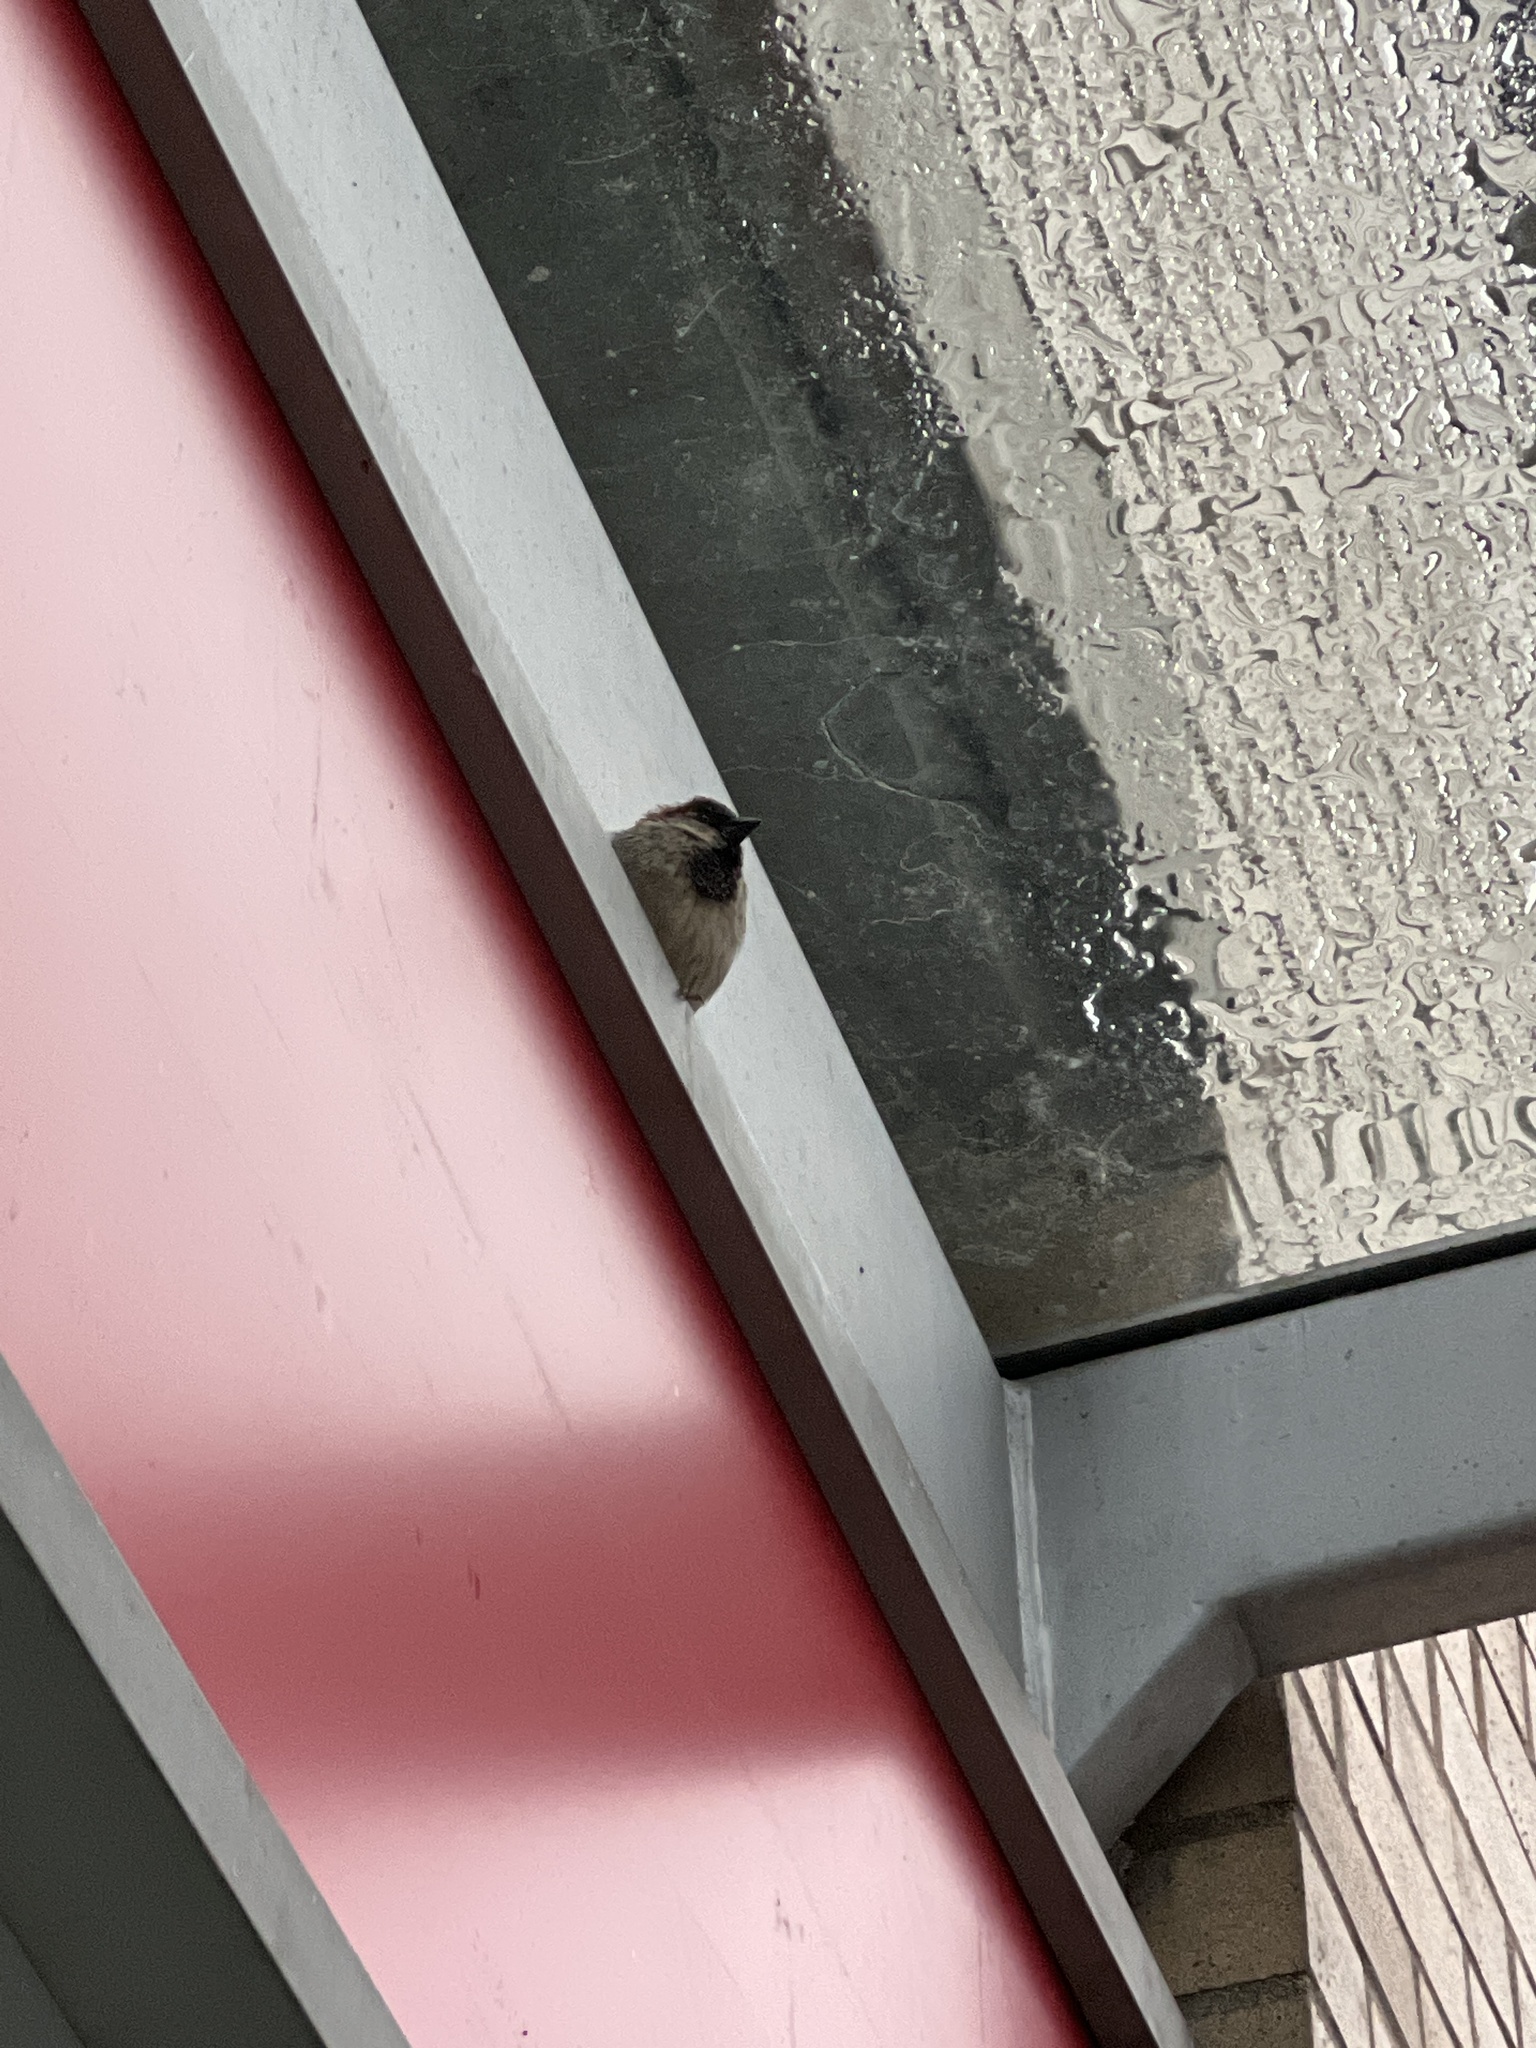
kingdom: Animalia
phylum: Chordata
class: Aves
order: Passeriformes
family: Passeridae
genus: Passer
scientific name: Passer domesticus
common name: House sparrow
